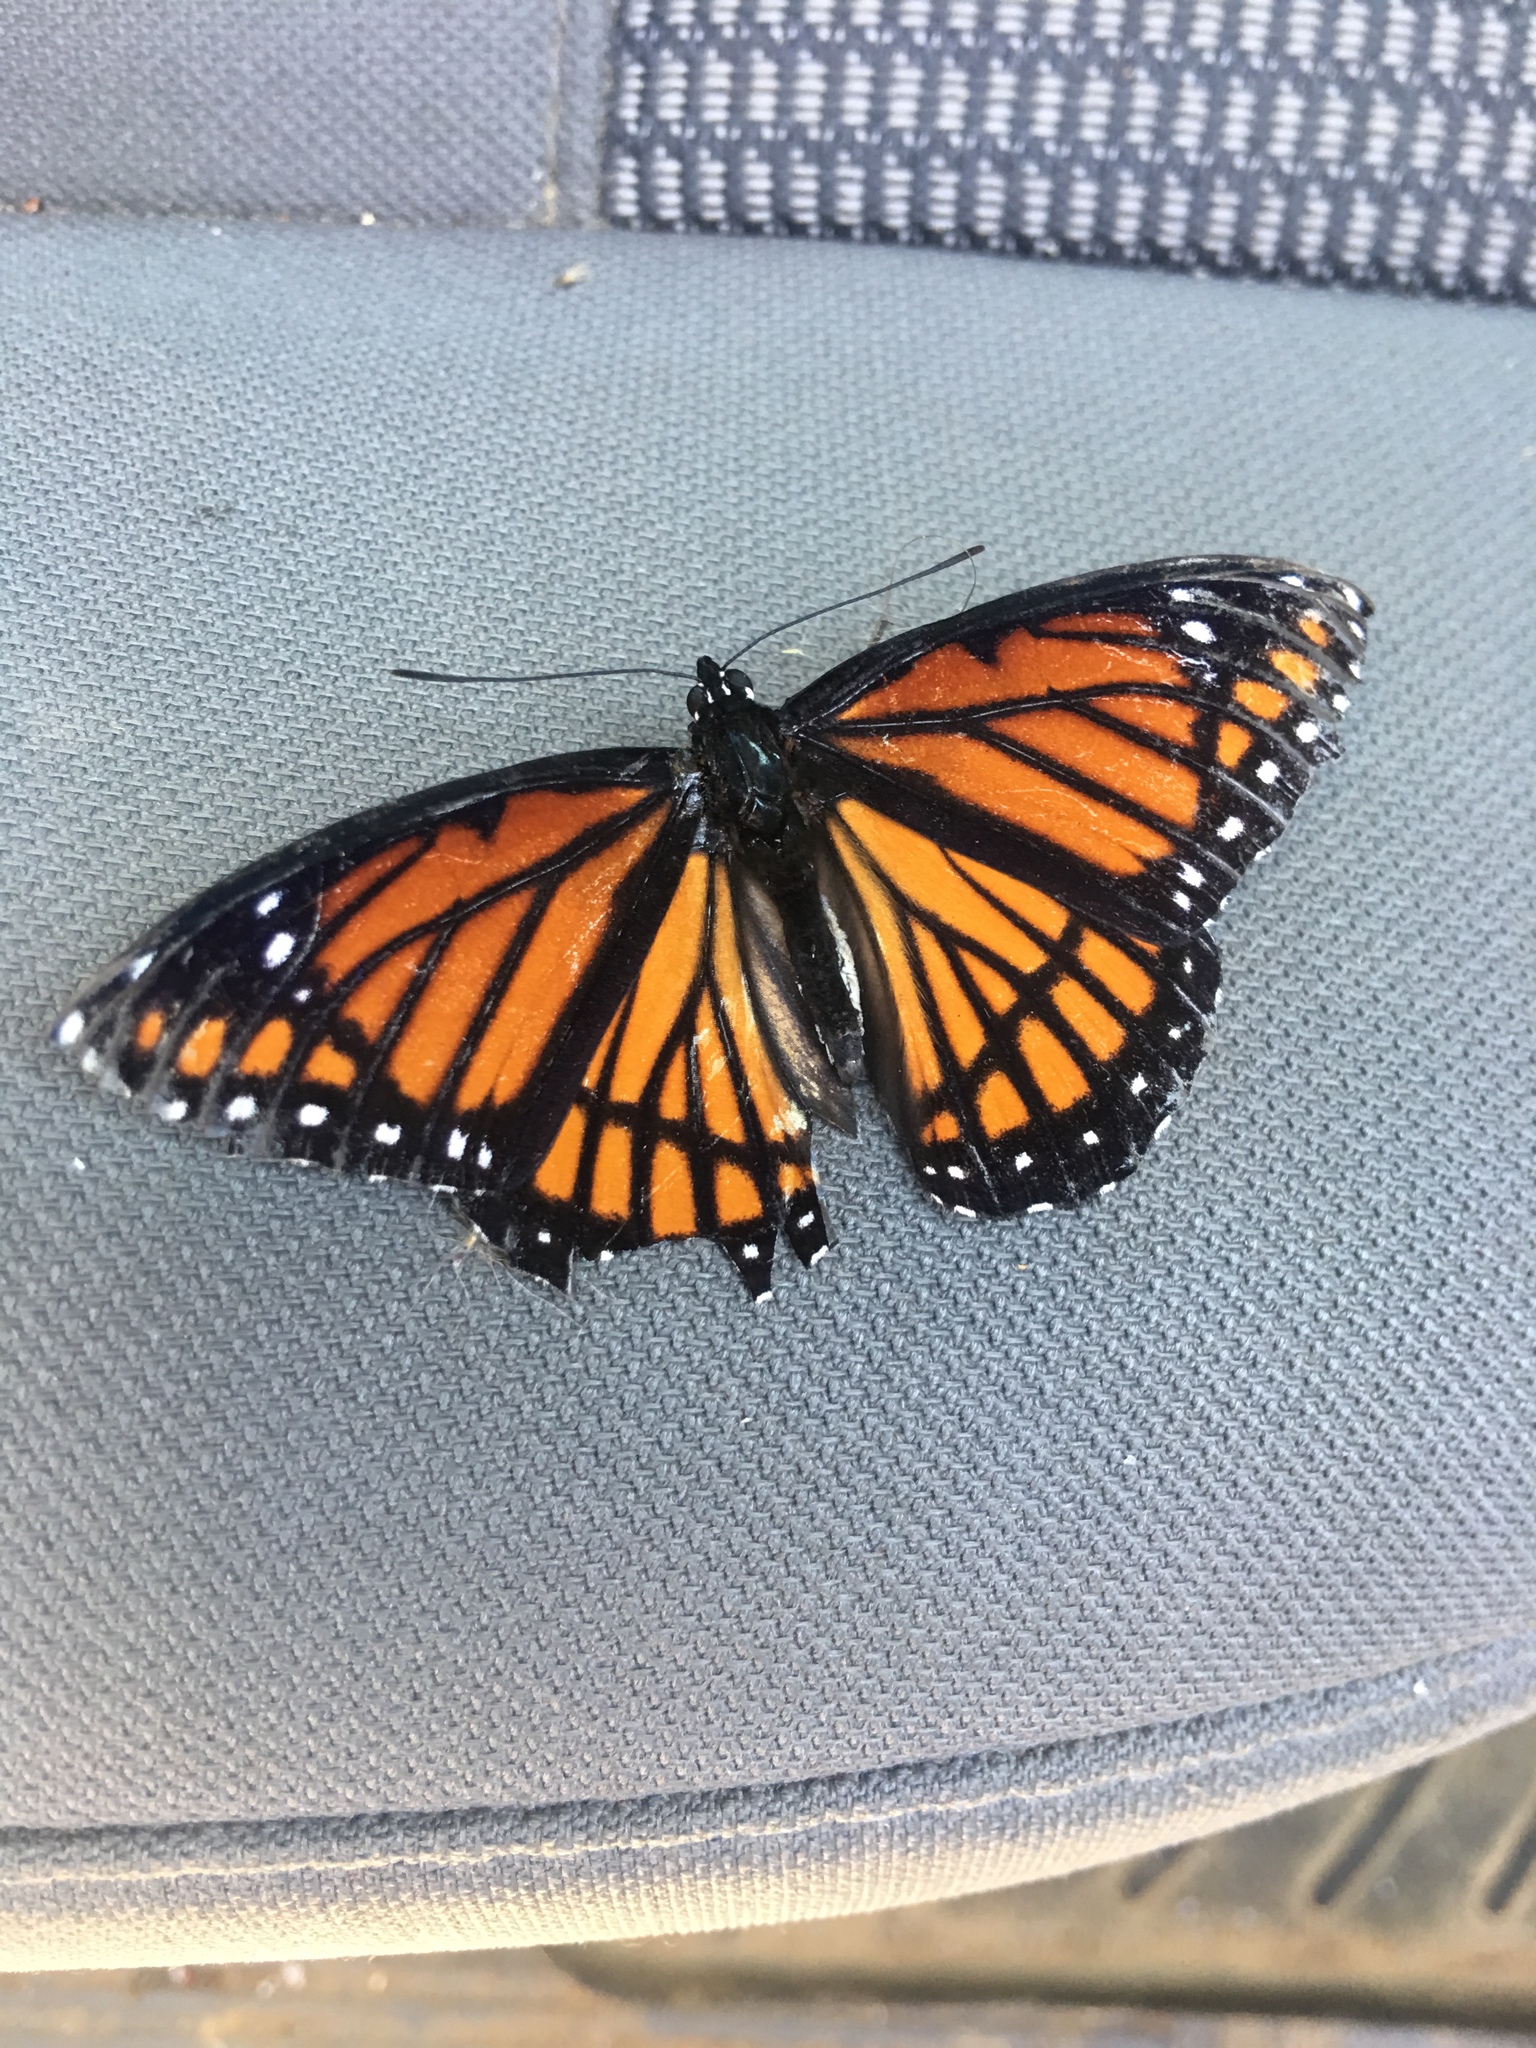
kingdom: Animalia
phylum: Arthropoda
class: Insecta
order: Lepidoptera
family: Nymphalidae
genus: Limenitis
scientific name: Limenitis archippus
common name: Viceroy
